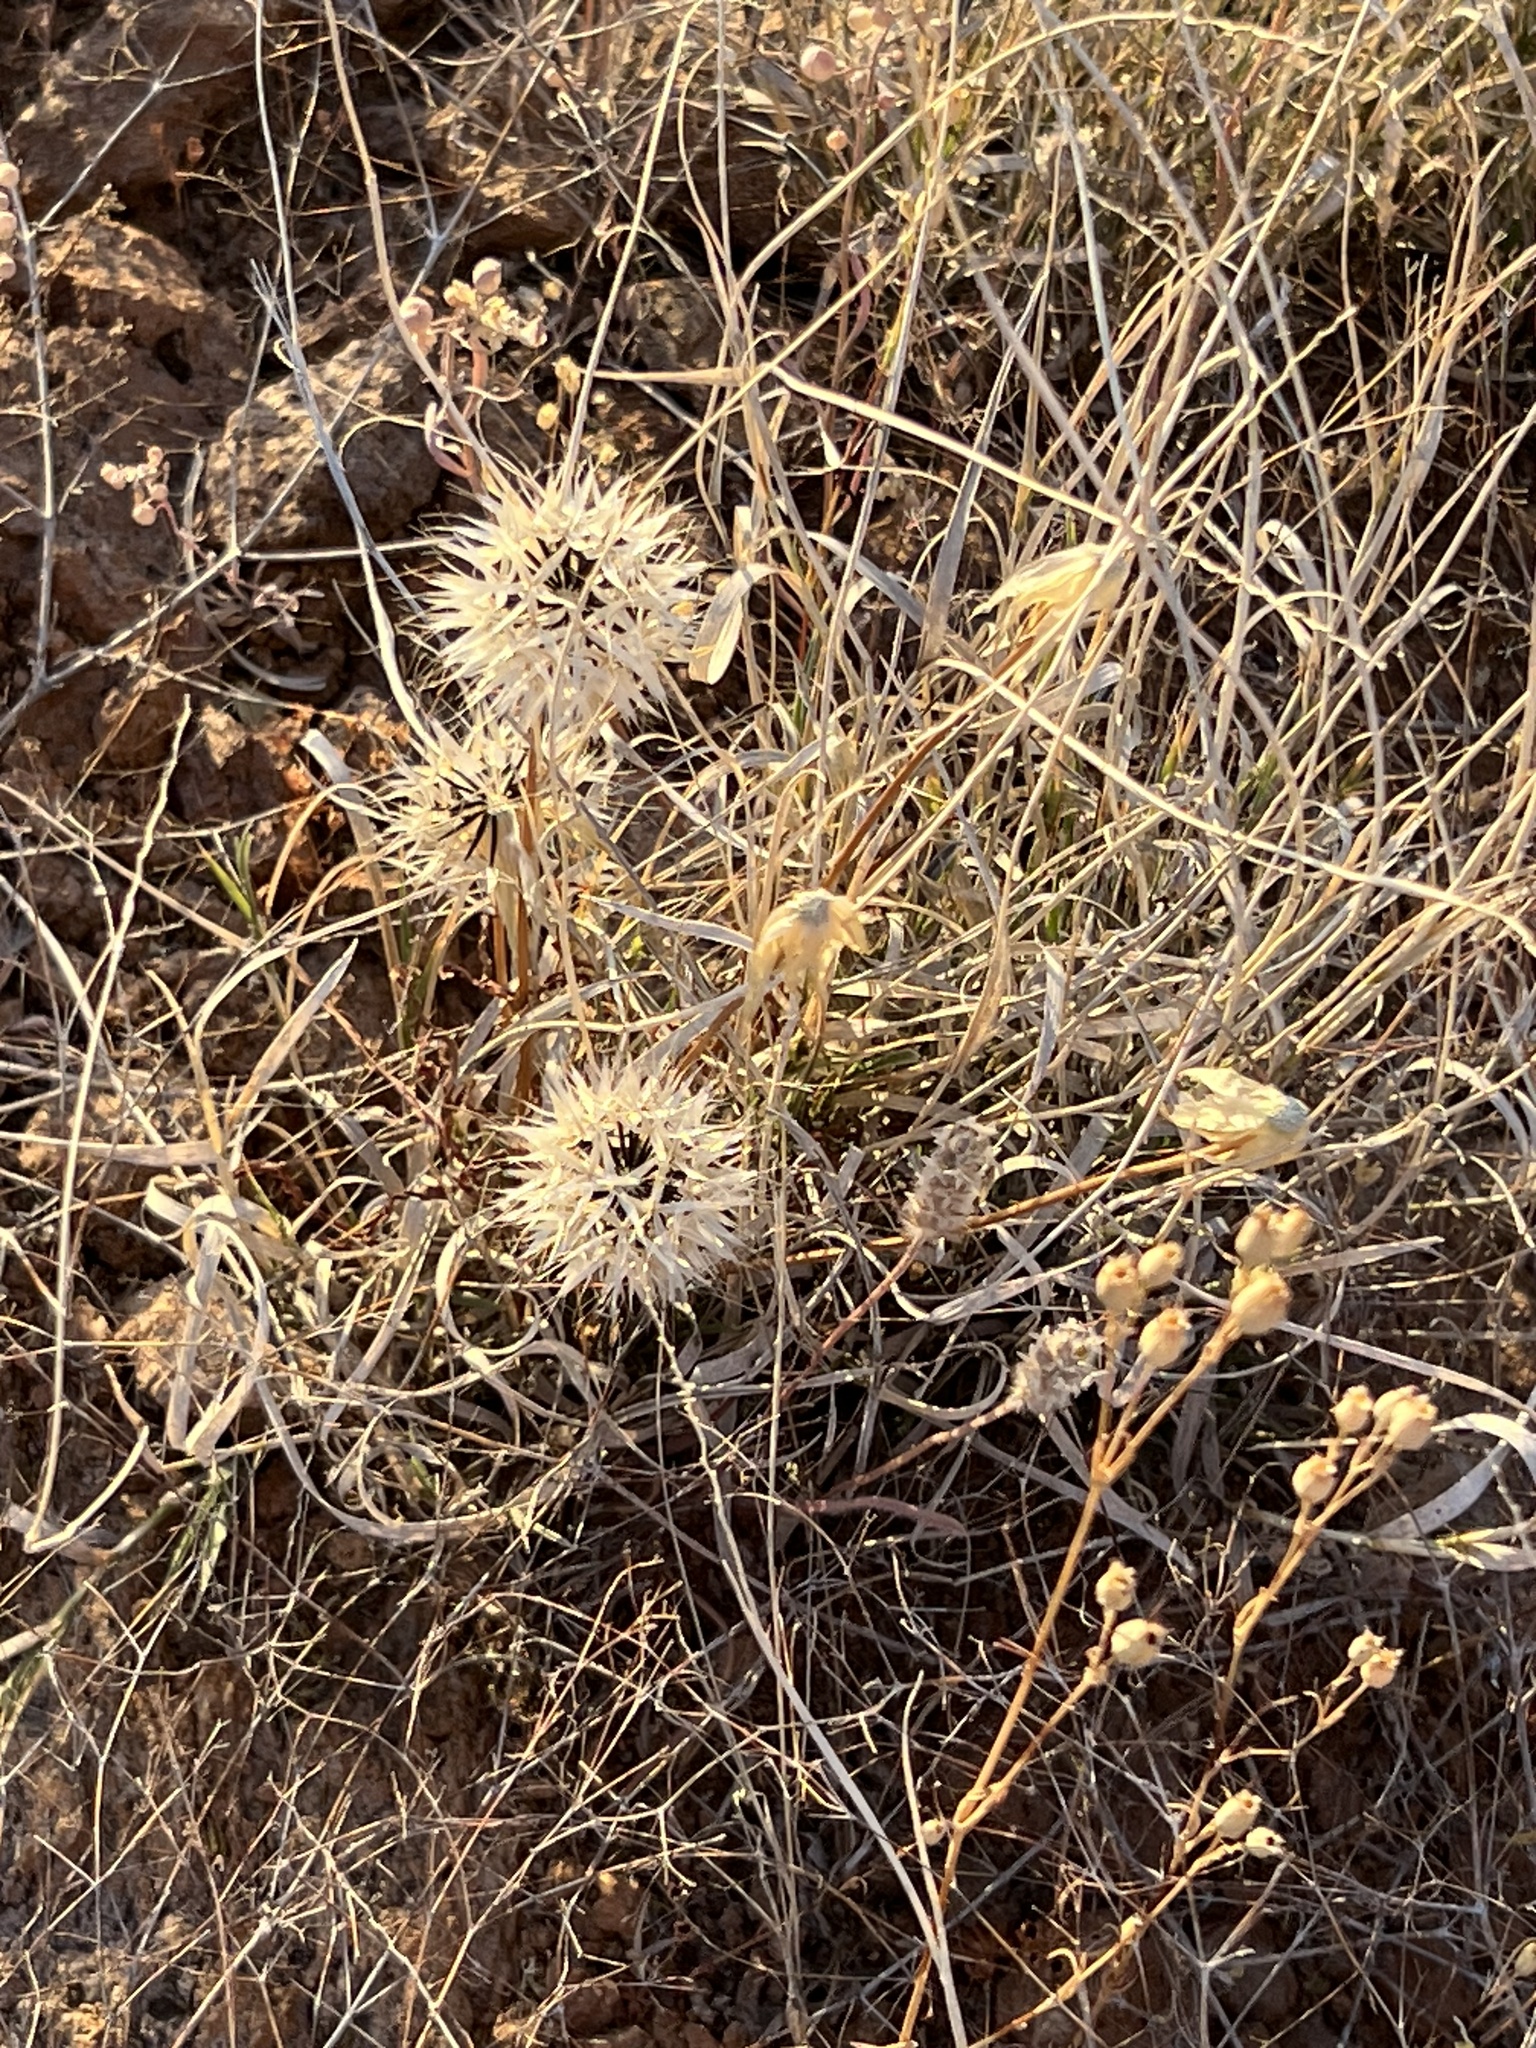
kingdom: Plantae
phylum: Tracheophyta
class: Magnoliopsida
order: Asterales
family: Asteraceae
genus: Microseris
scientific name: Microseris lindleyi
